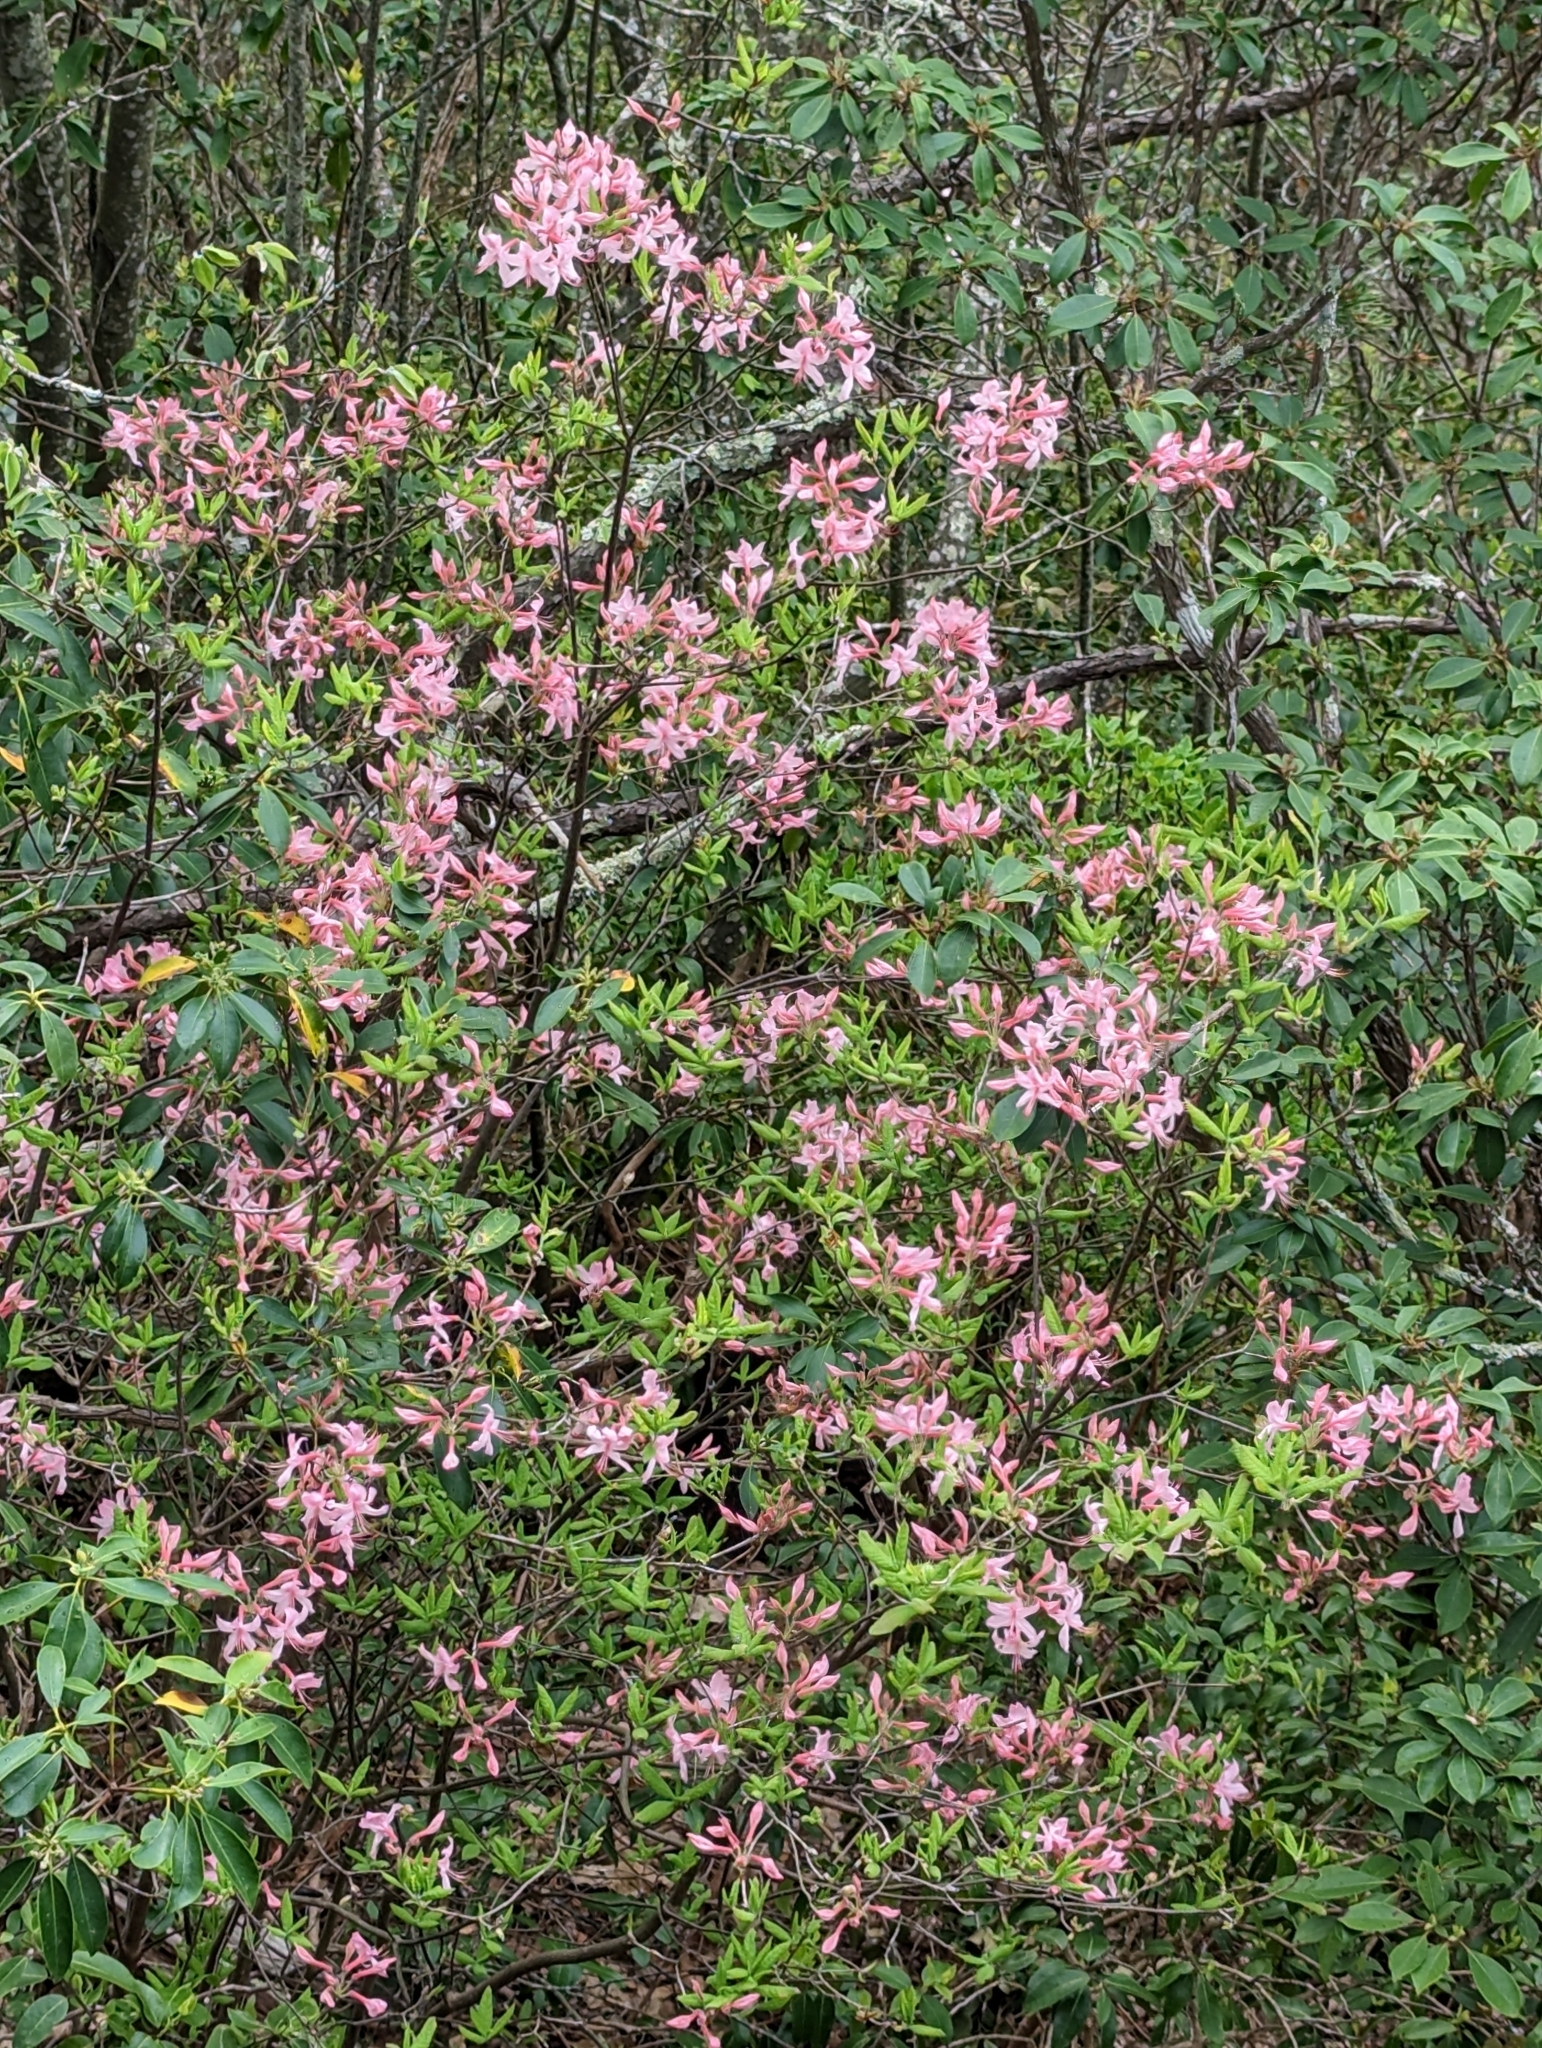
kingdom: Plantae
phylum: Tracheophyta
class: Magnoliopsida
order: Ericales
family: Ericaceae
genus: Rhododendron
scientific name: Rhododendron periclymenoides
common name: Election-pink
